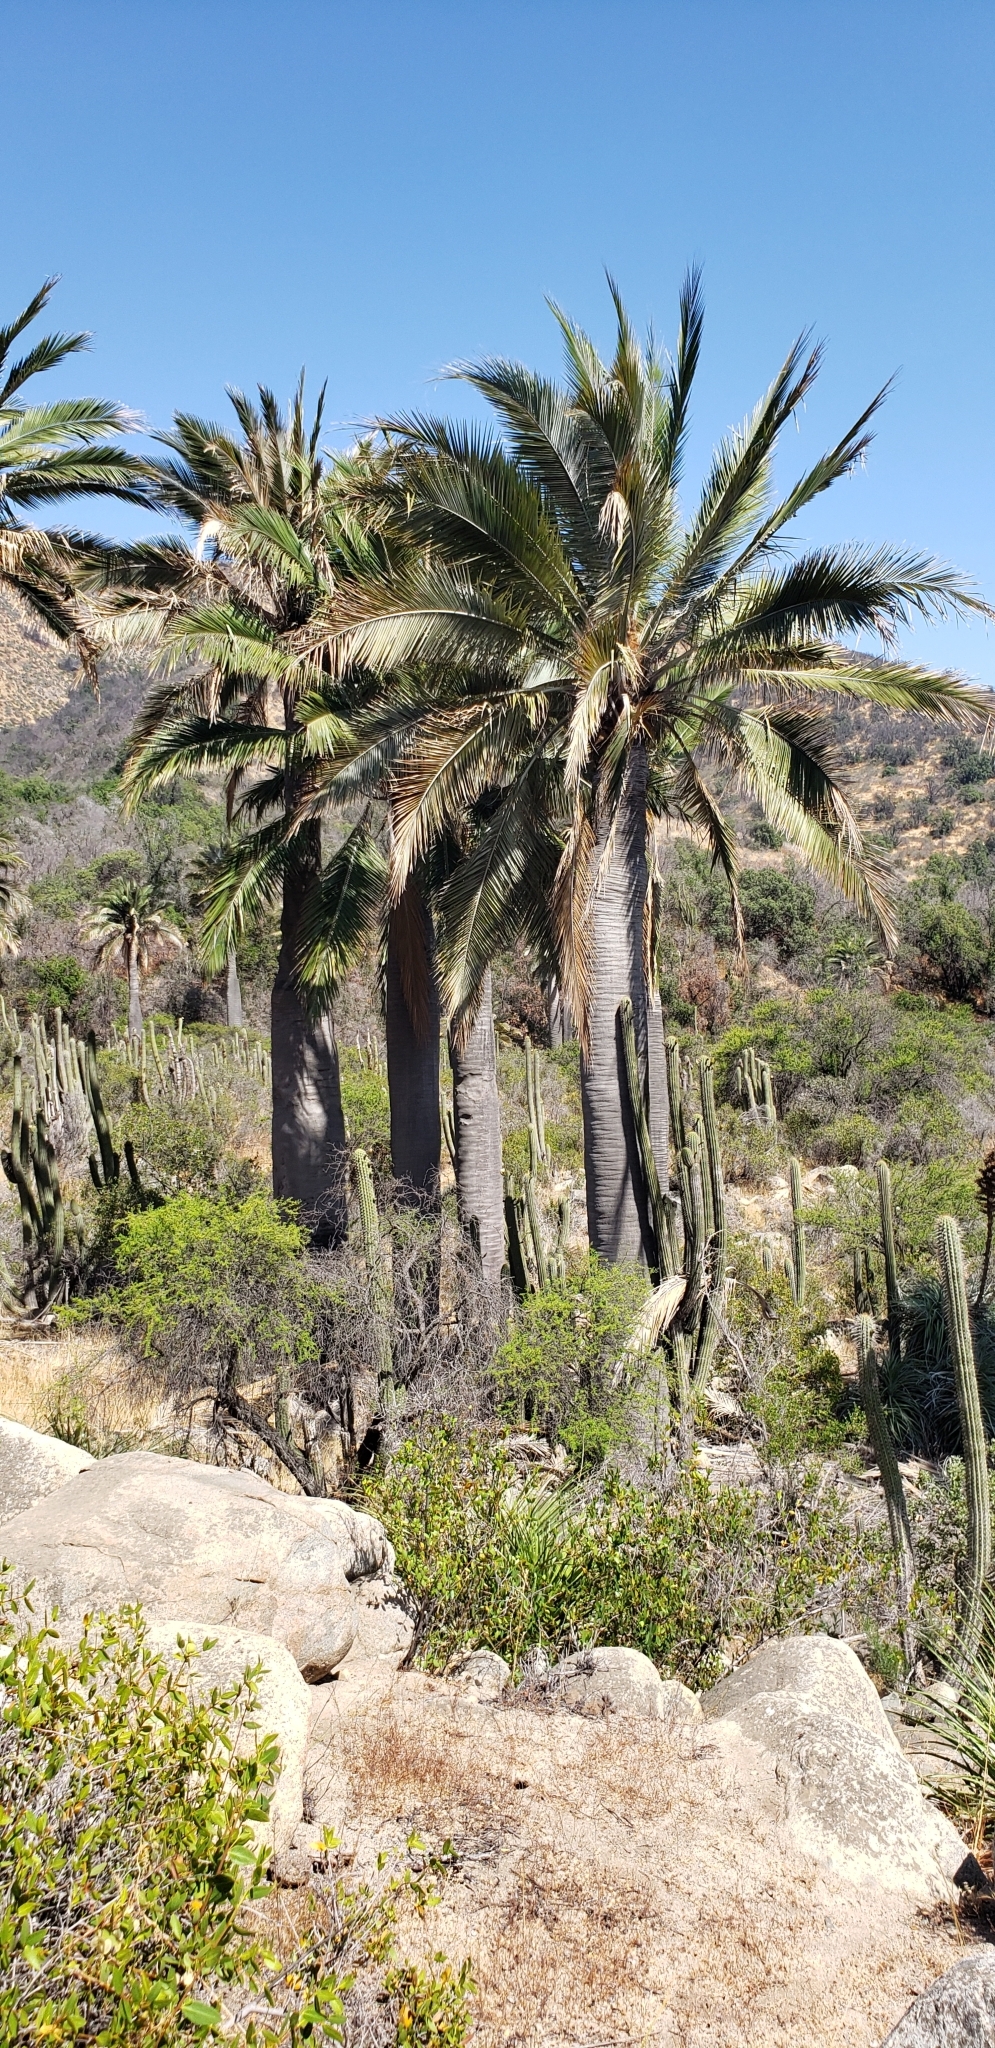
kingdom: Plantae
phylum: Tracheophyta
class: Liliopsida
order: Arecales
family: Arecaceae
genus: Jubaea
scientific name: Jubaea chilensis
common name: Coquito palm
